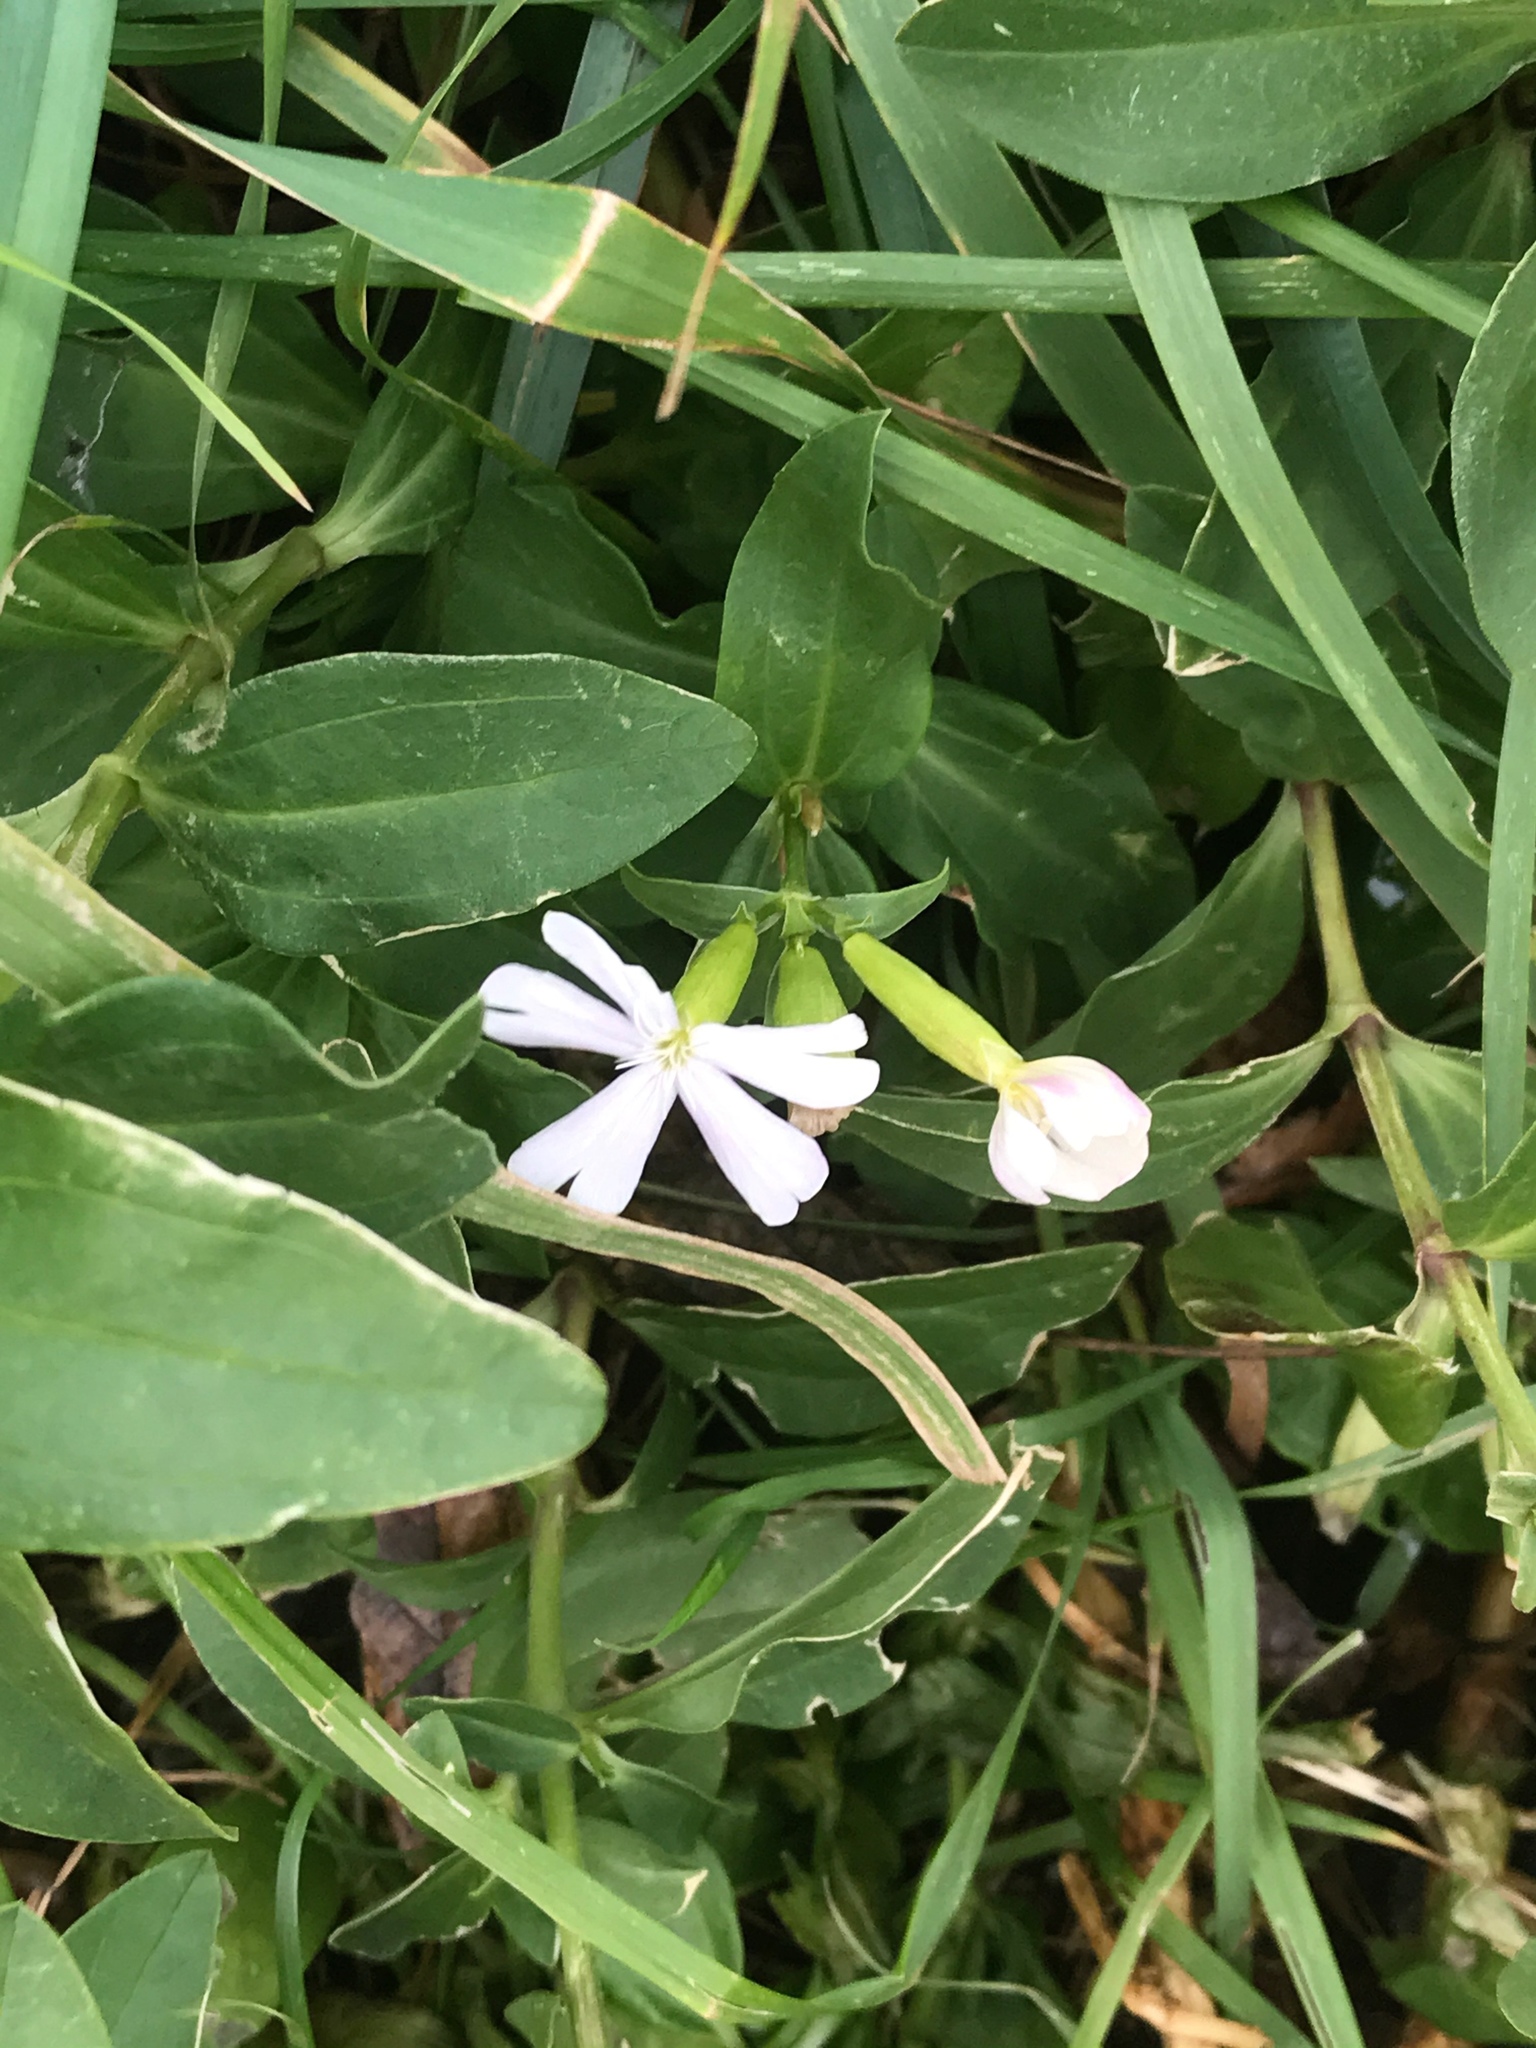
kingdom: Plantae
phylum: Tracheophyta
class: Magnoliopsida
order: Caryophyllales
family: Caryophyllaceae
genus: Saponaria
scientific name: Saponaria officinalis
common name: Soapwort
